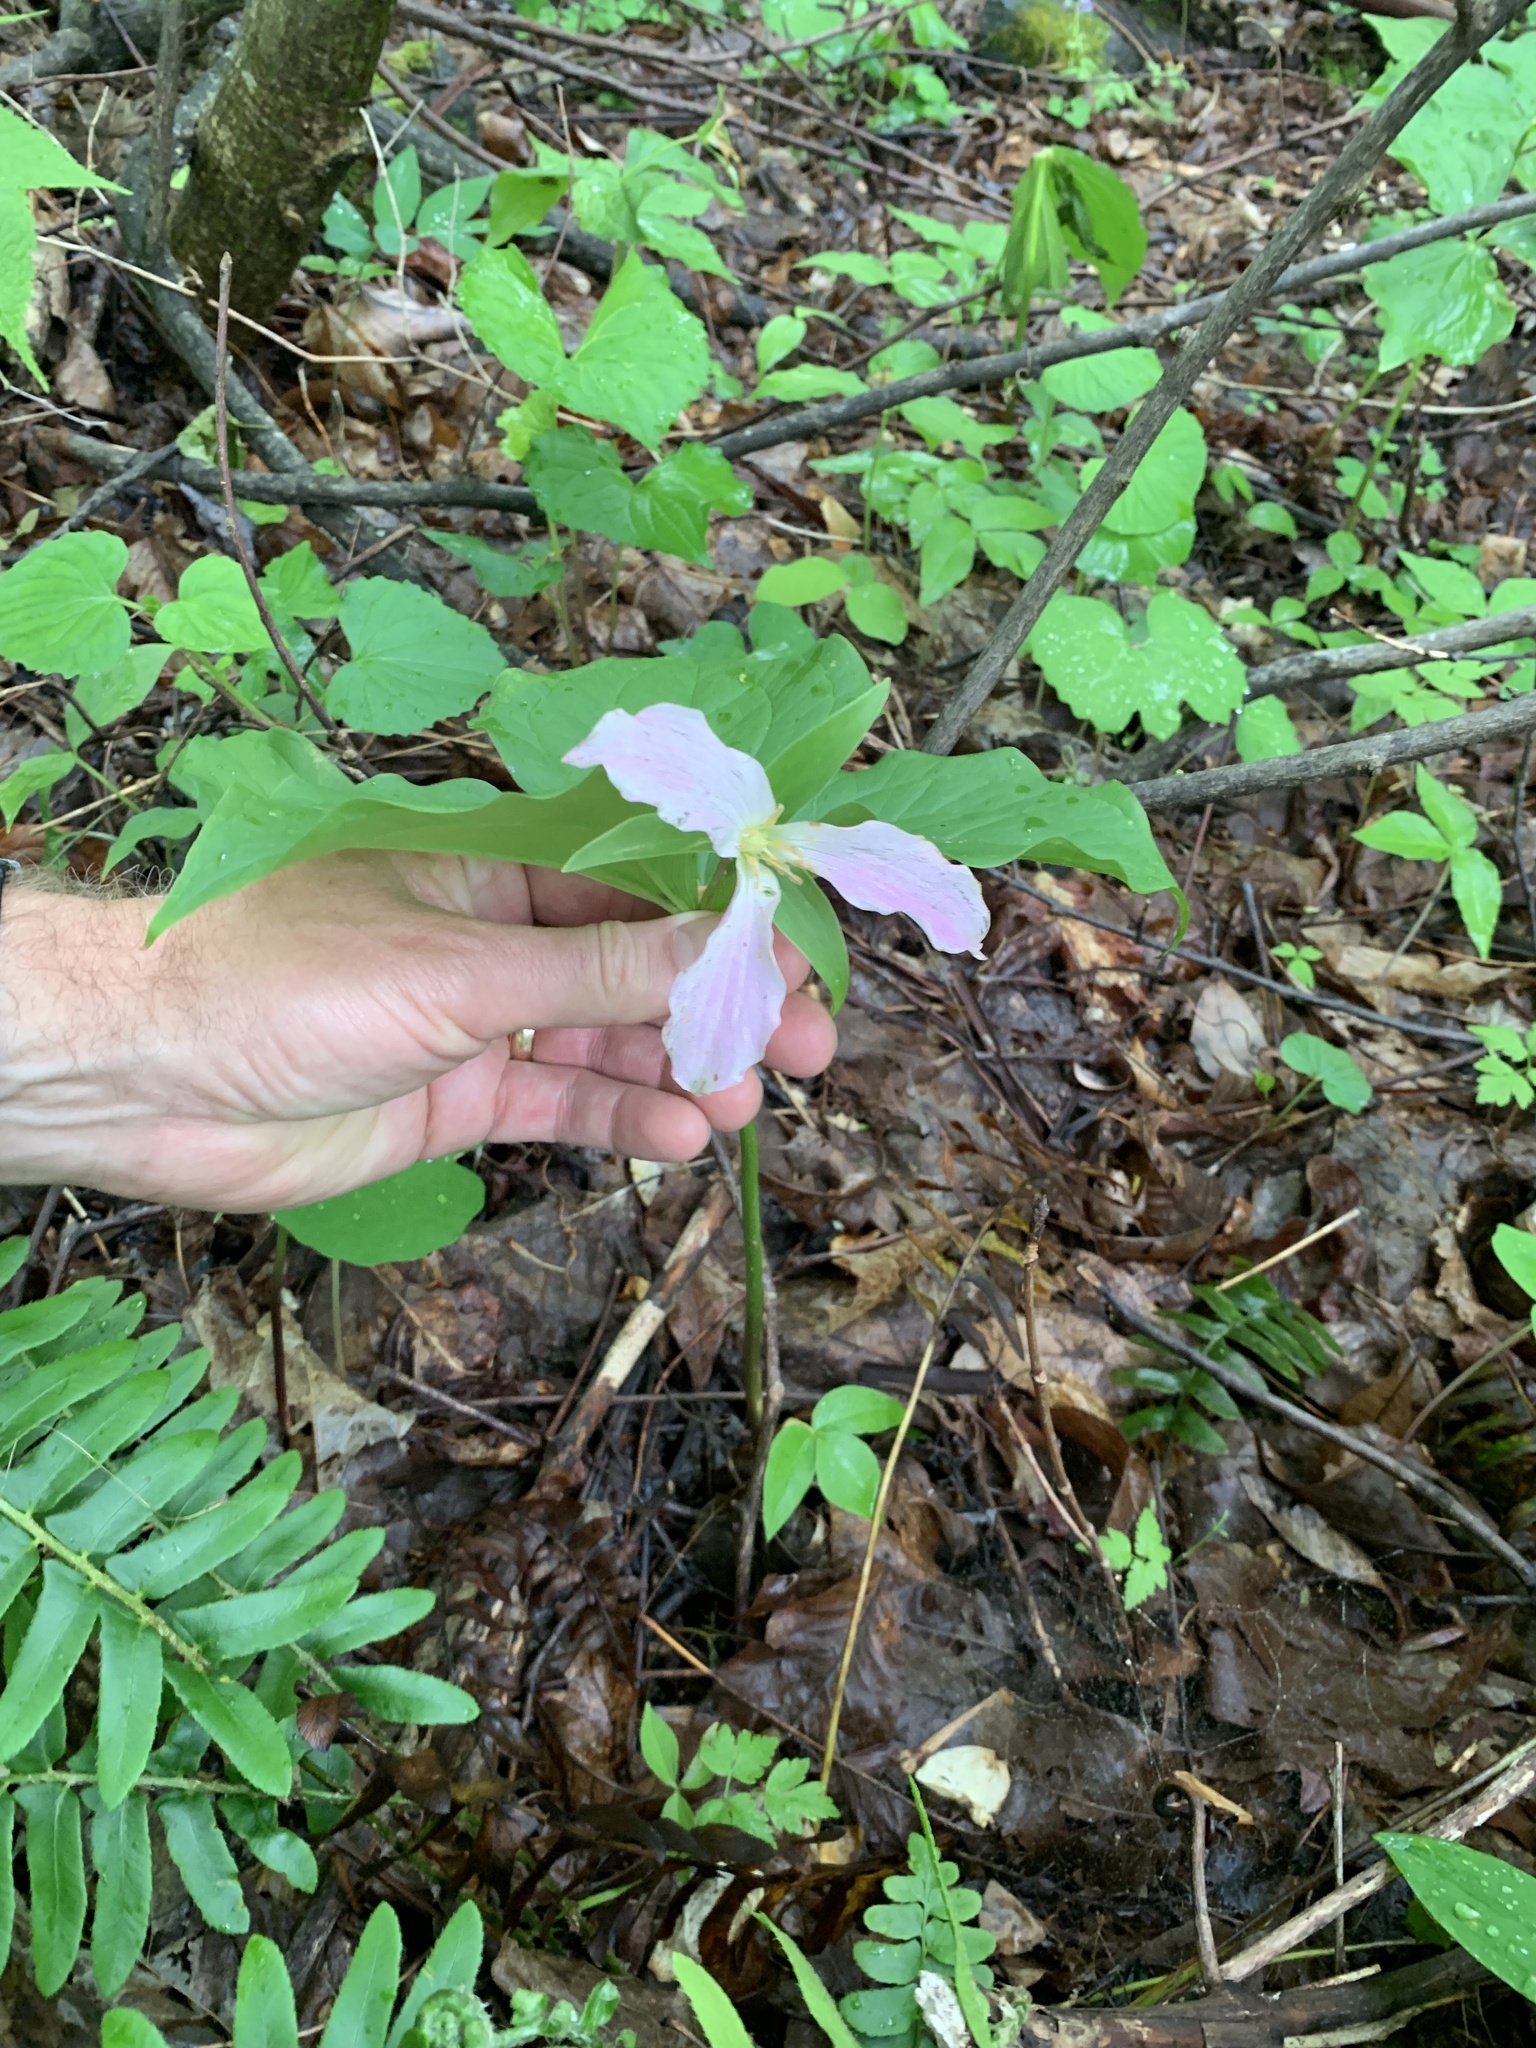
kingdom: Plantae
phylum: Tracheophyta
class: Liliopsida
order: Liliales
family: Melanthiaceae
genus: Trillium
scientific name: Trillium catesbaei
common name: Bashful trillium
